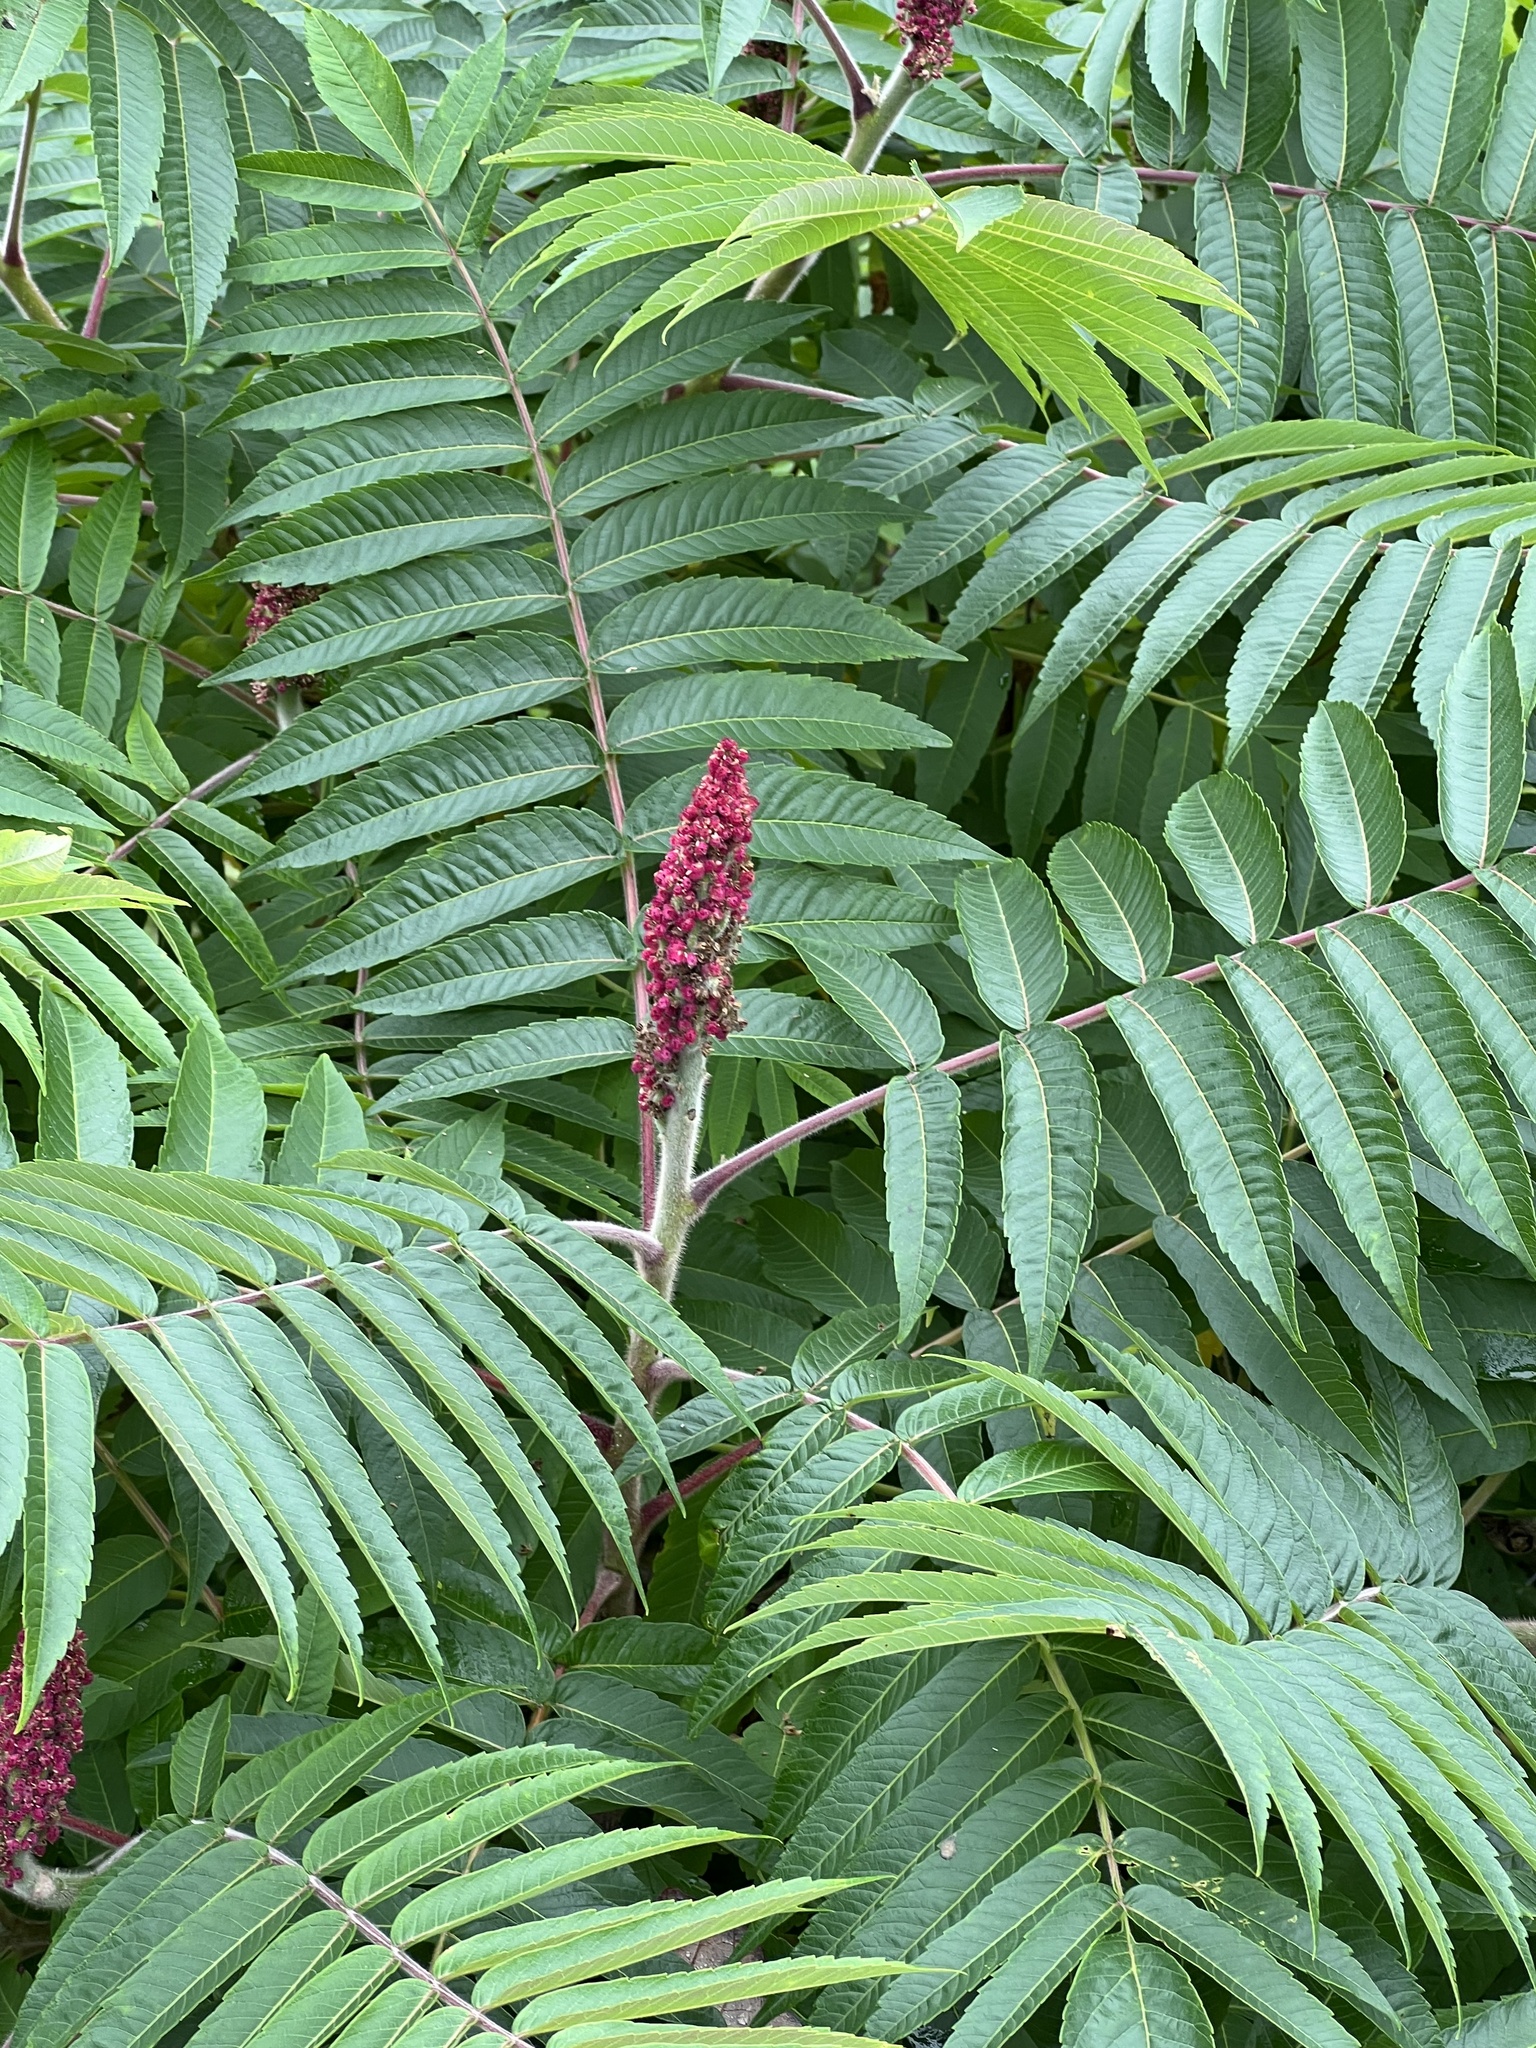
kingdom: Plantae
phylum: Tracheophyta
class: Magnoliopsida
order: Sapindales
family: Anacardiaceae
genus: Rhus
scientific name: Rhus typhina
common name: Staghorn sumac
